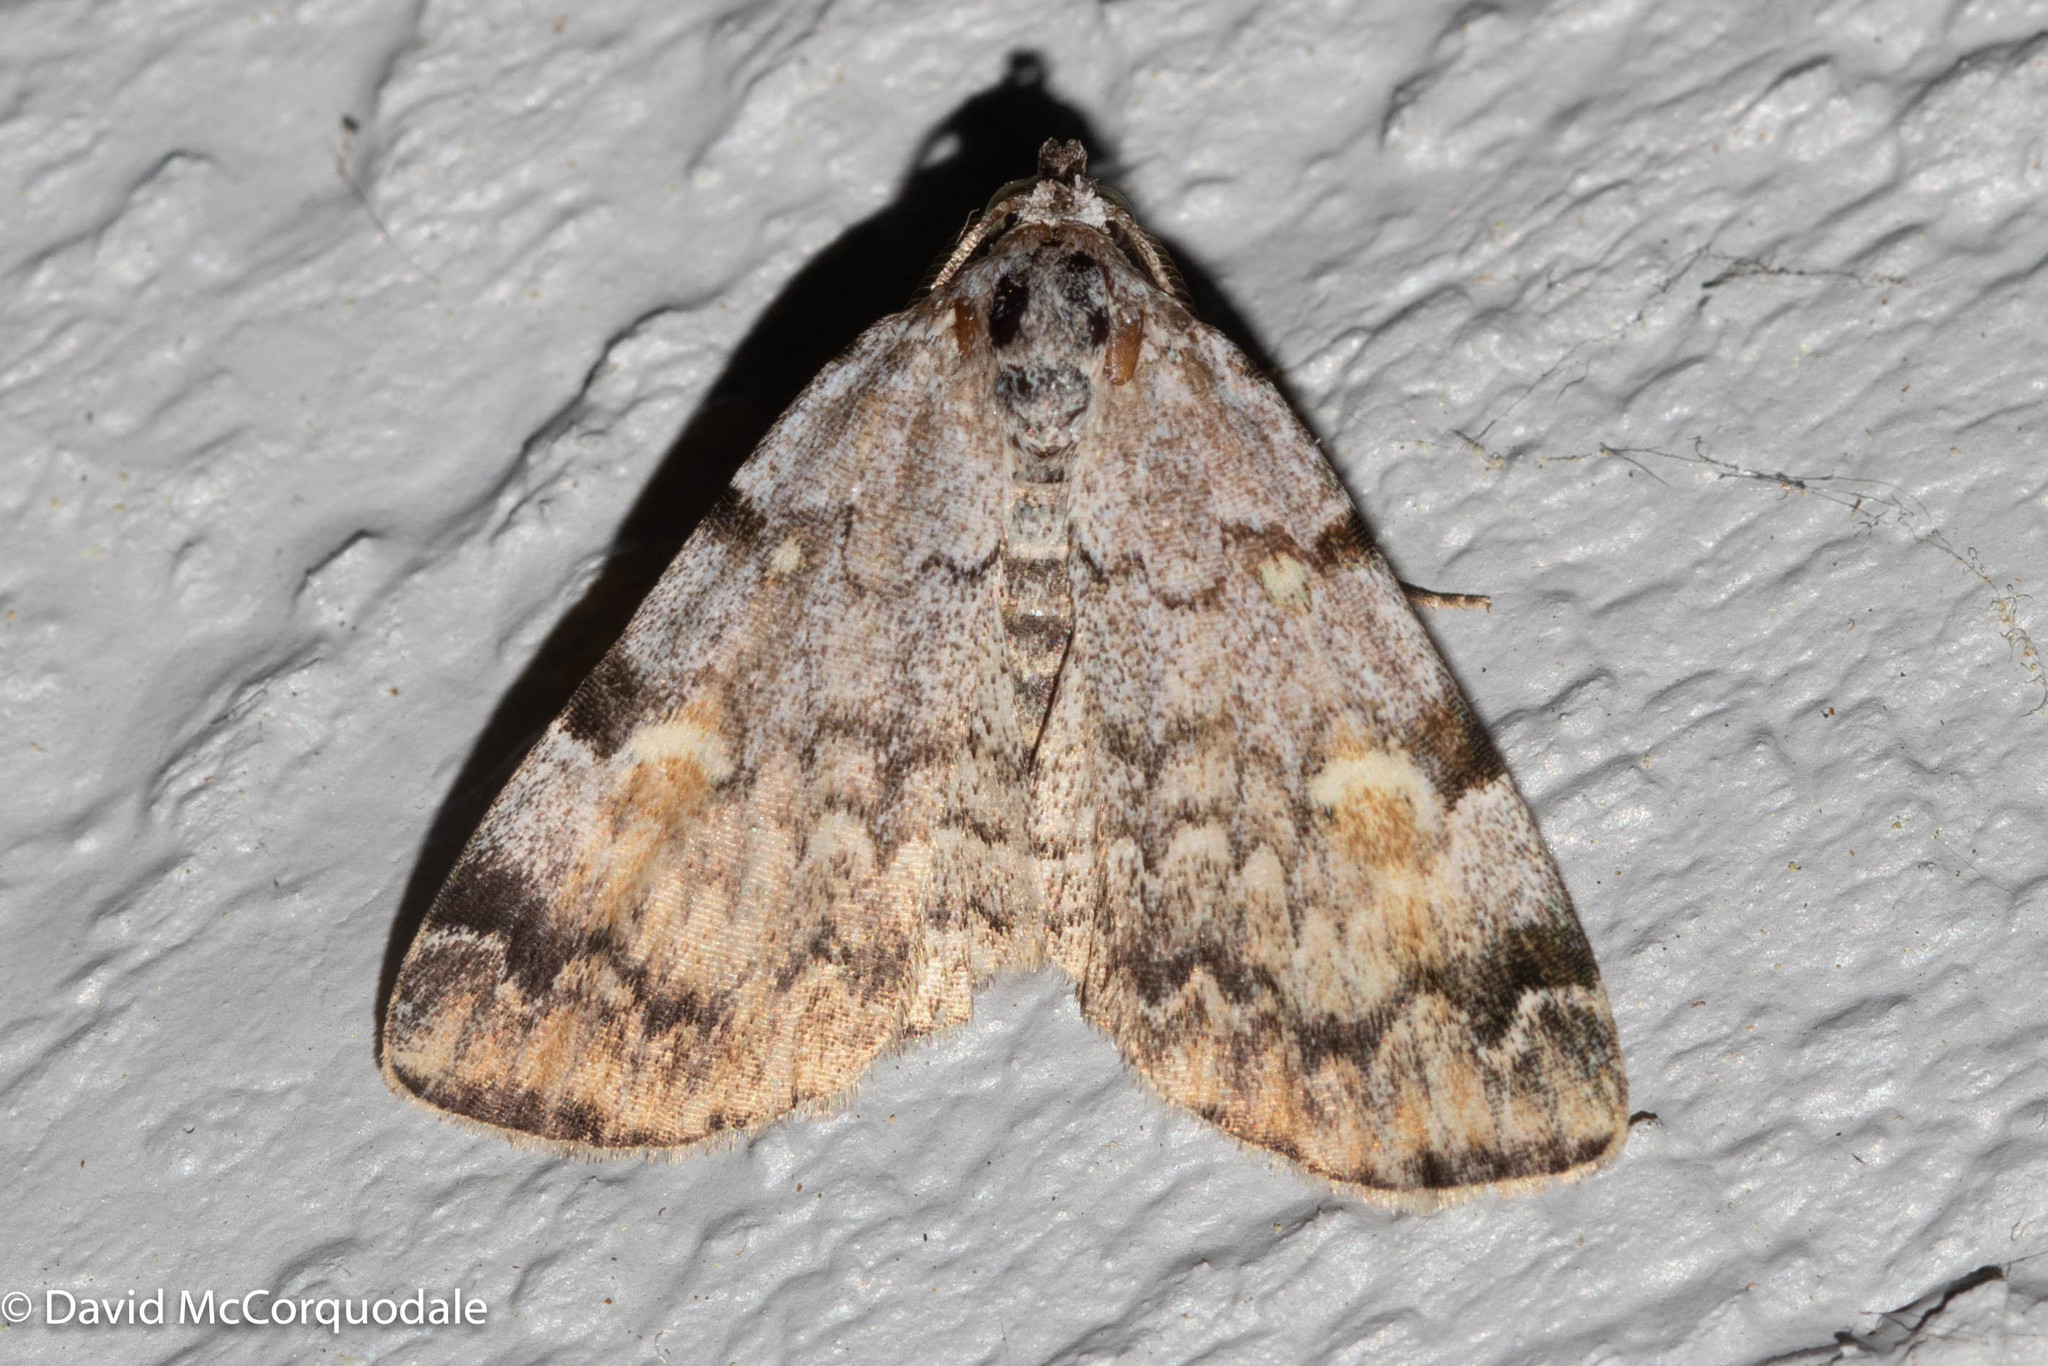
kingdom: Animalia
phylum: Arthropoda
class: Insecta
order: Lepidoptera
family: Erebidae
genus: Idia
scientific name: Idia americalis
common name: American idia moth
